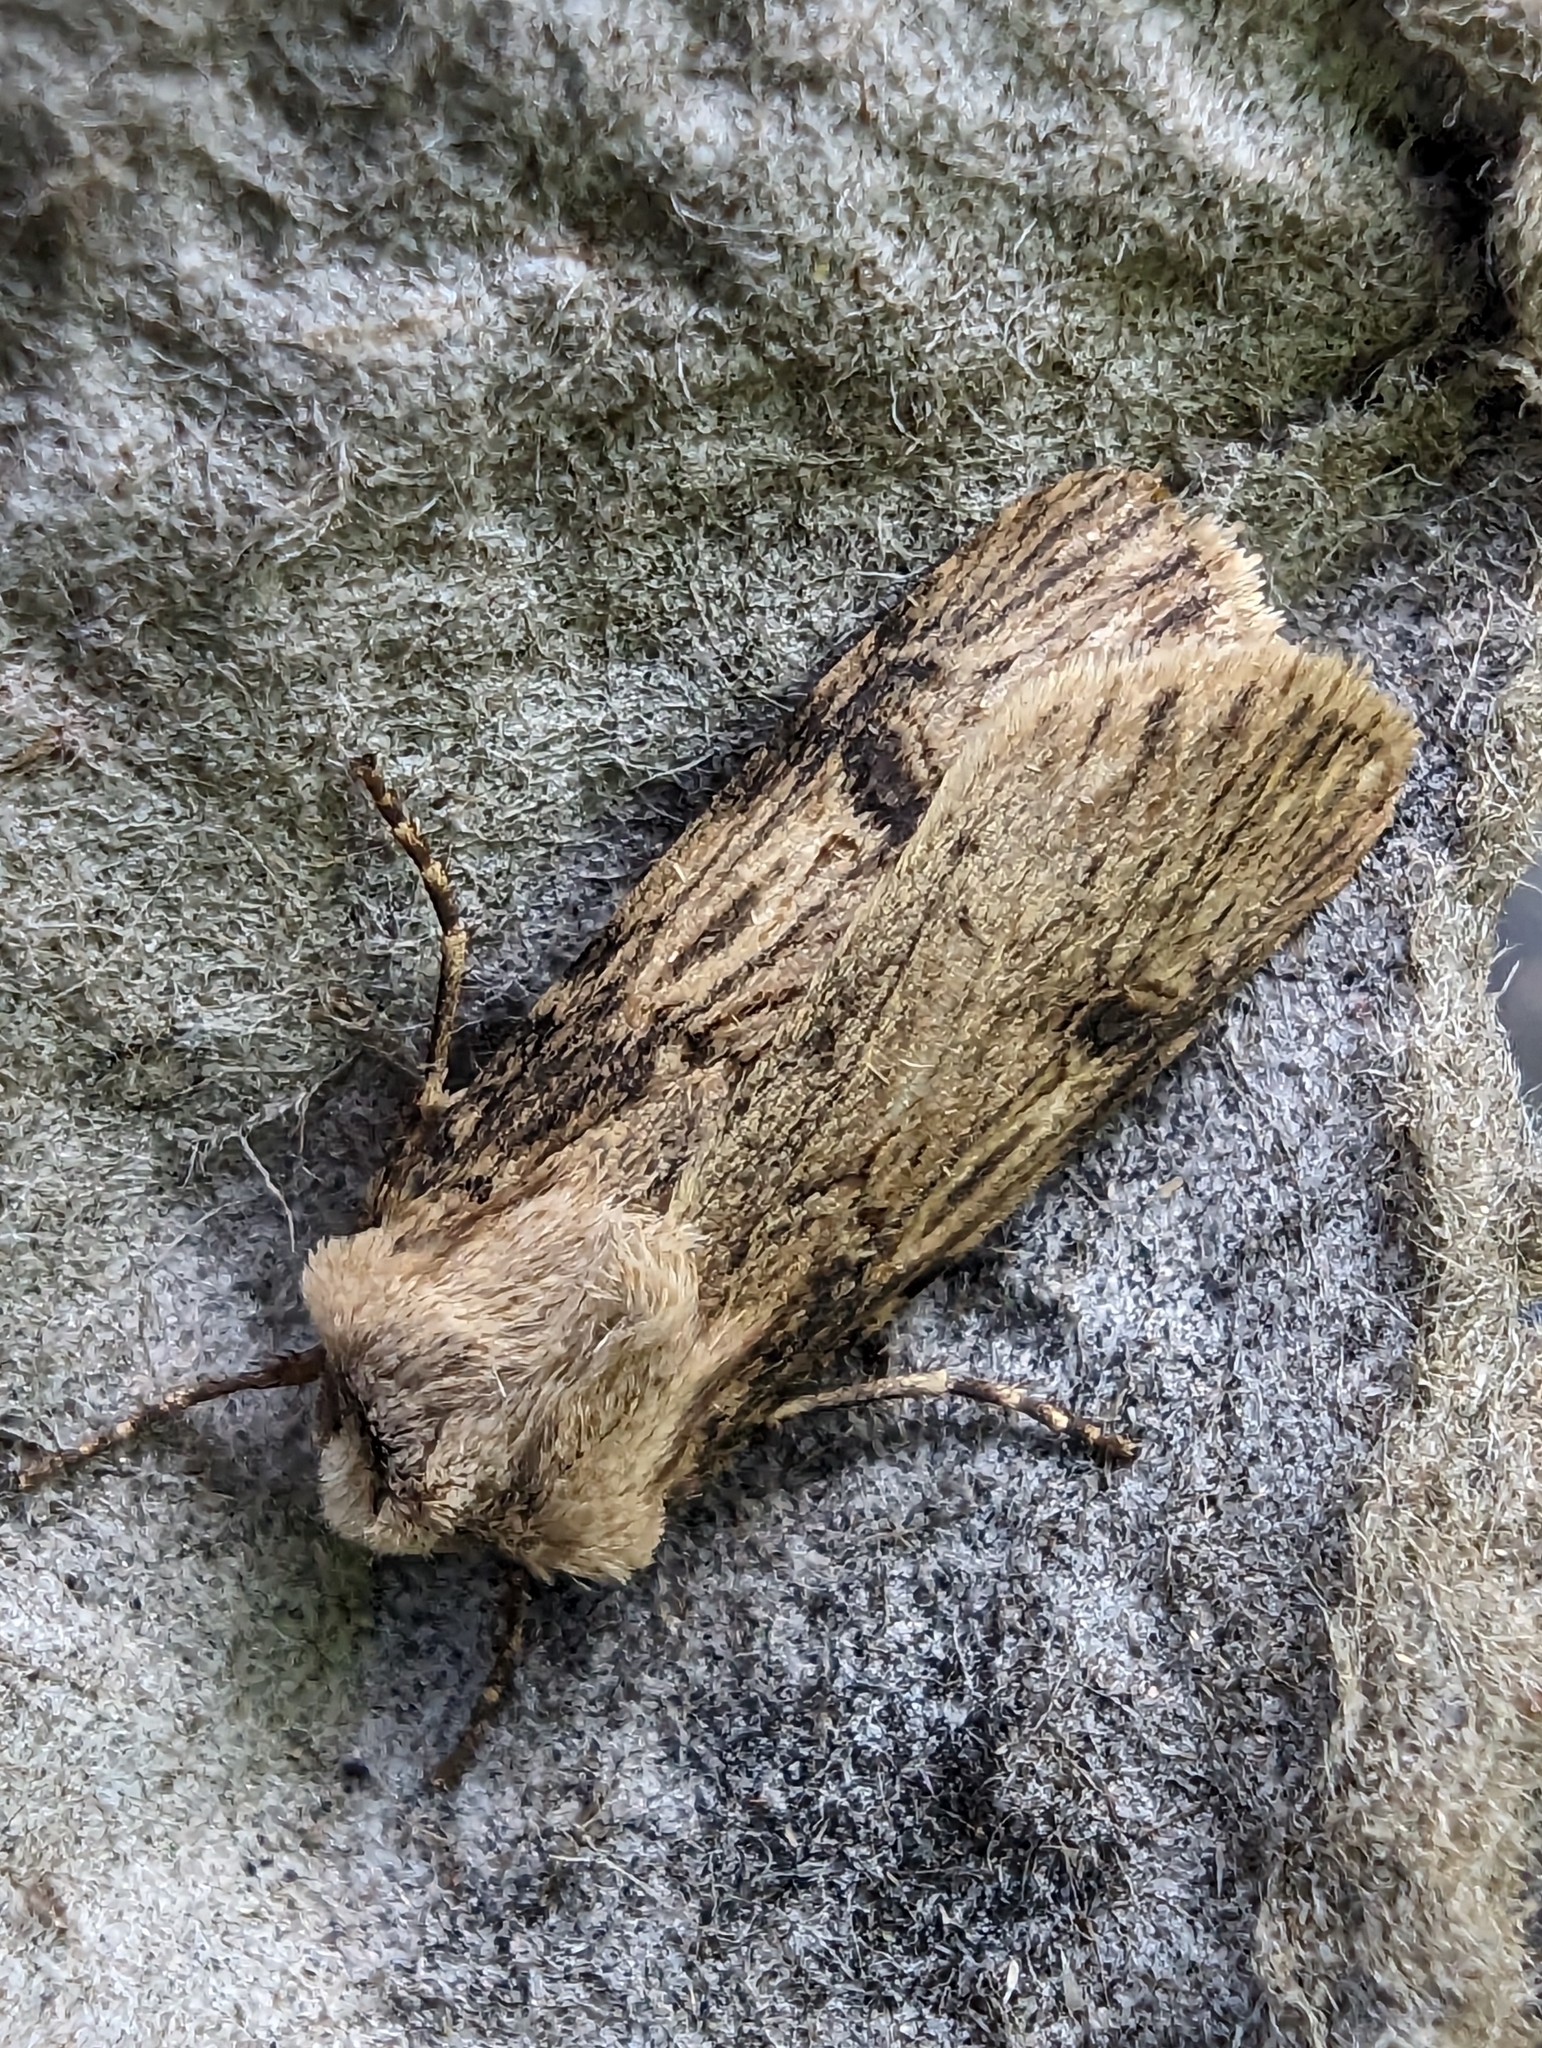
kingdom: Animalia
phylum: Arthropoda
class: Insecta
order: Lepidoptera
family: Noctuidae
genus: Agrotis
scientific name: Agrotis puta
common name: Shuttle-shaped dart
